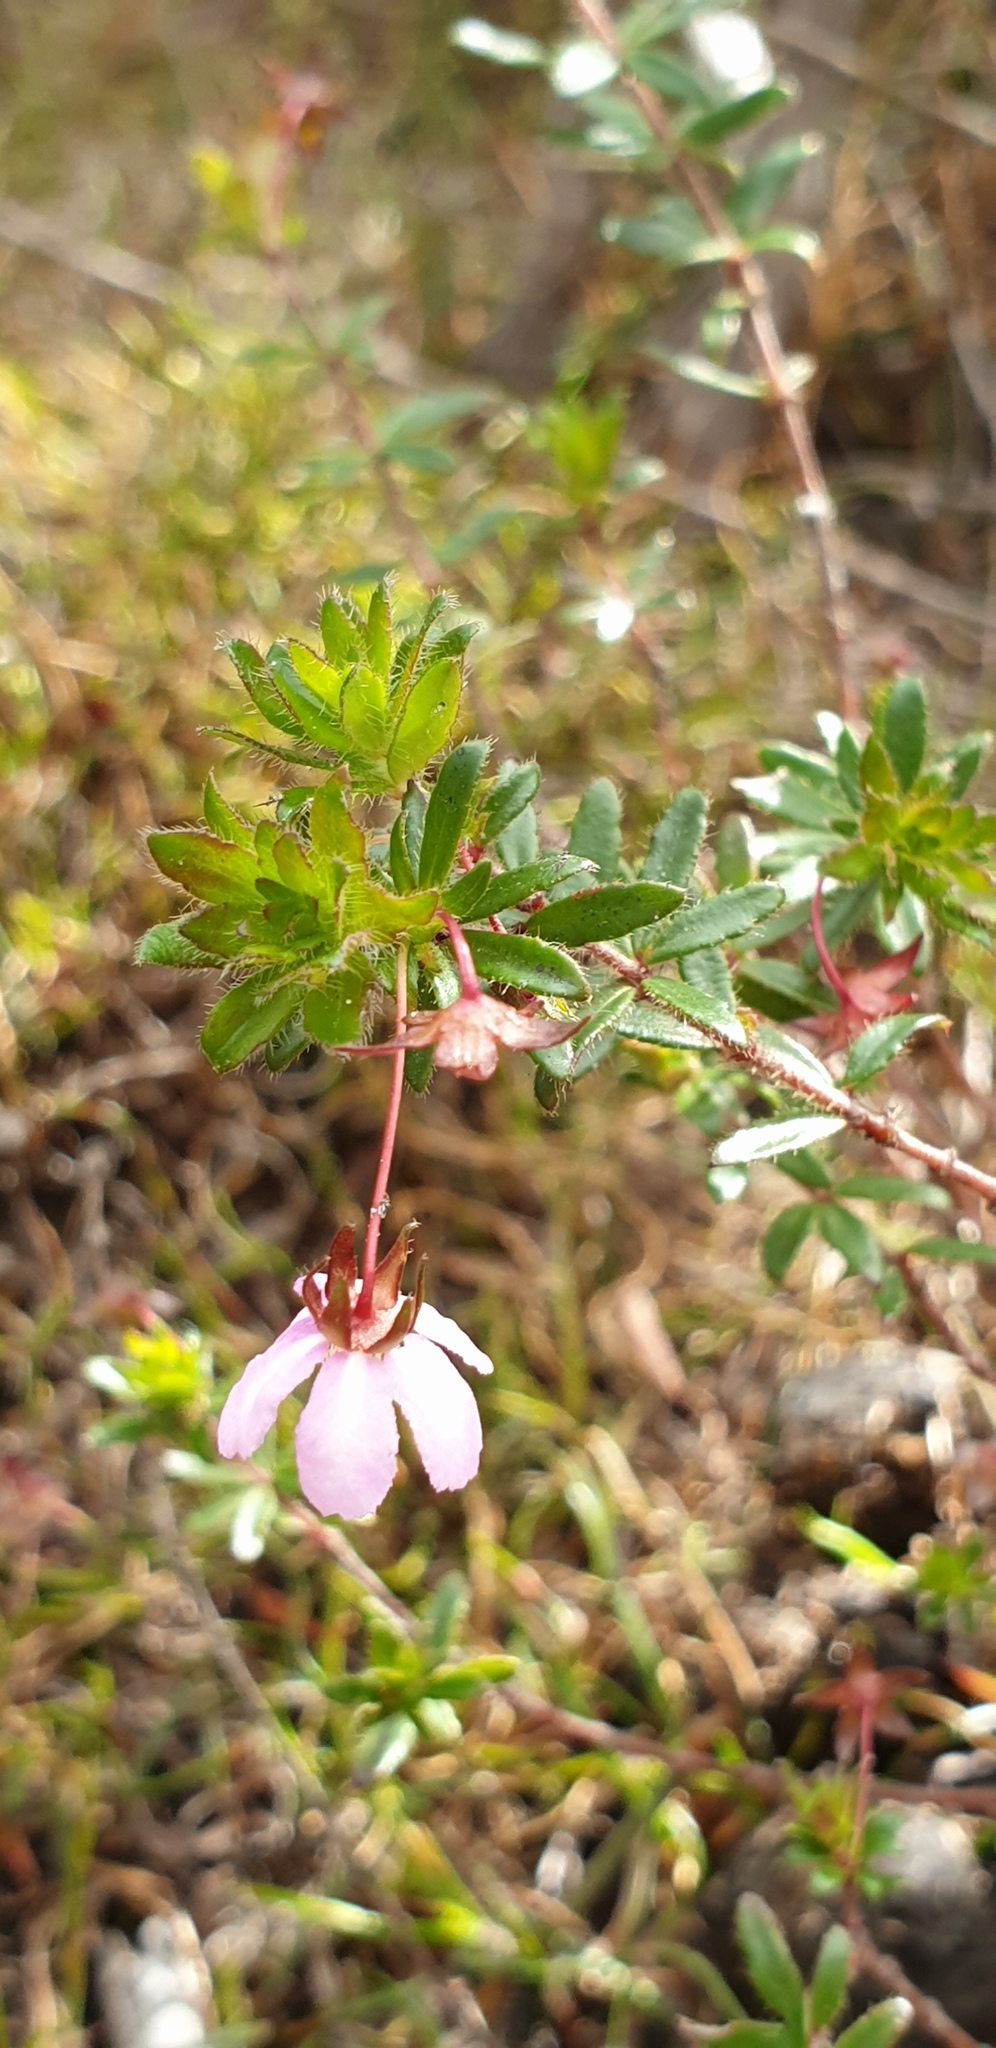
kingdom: Plantae
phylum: Tracheophyta
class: Magnoliopsida
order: Oxalidales
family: Cunoniaceae
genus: Bauera
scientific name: Bauera rubioides
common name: River-rose
